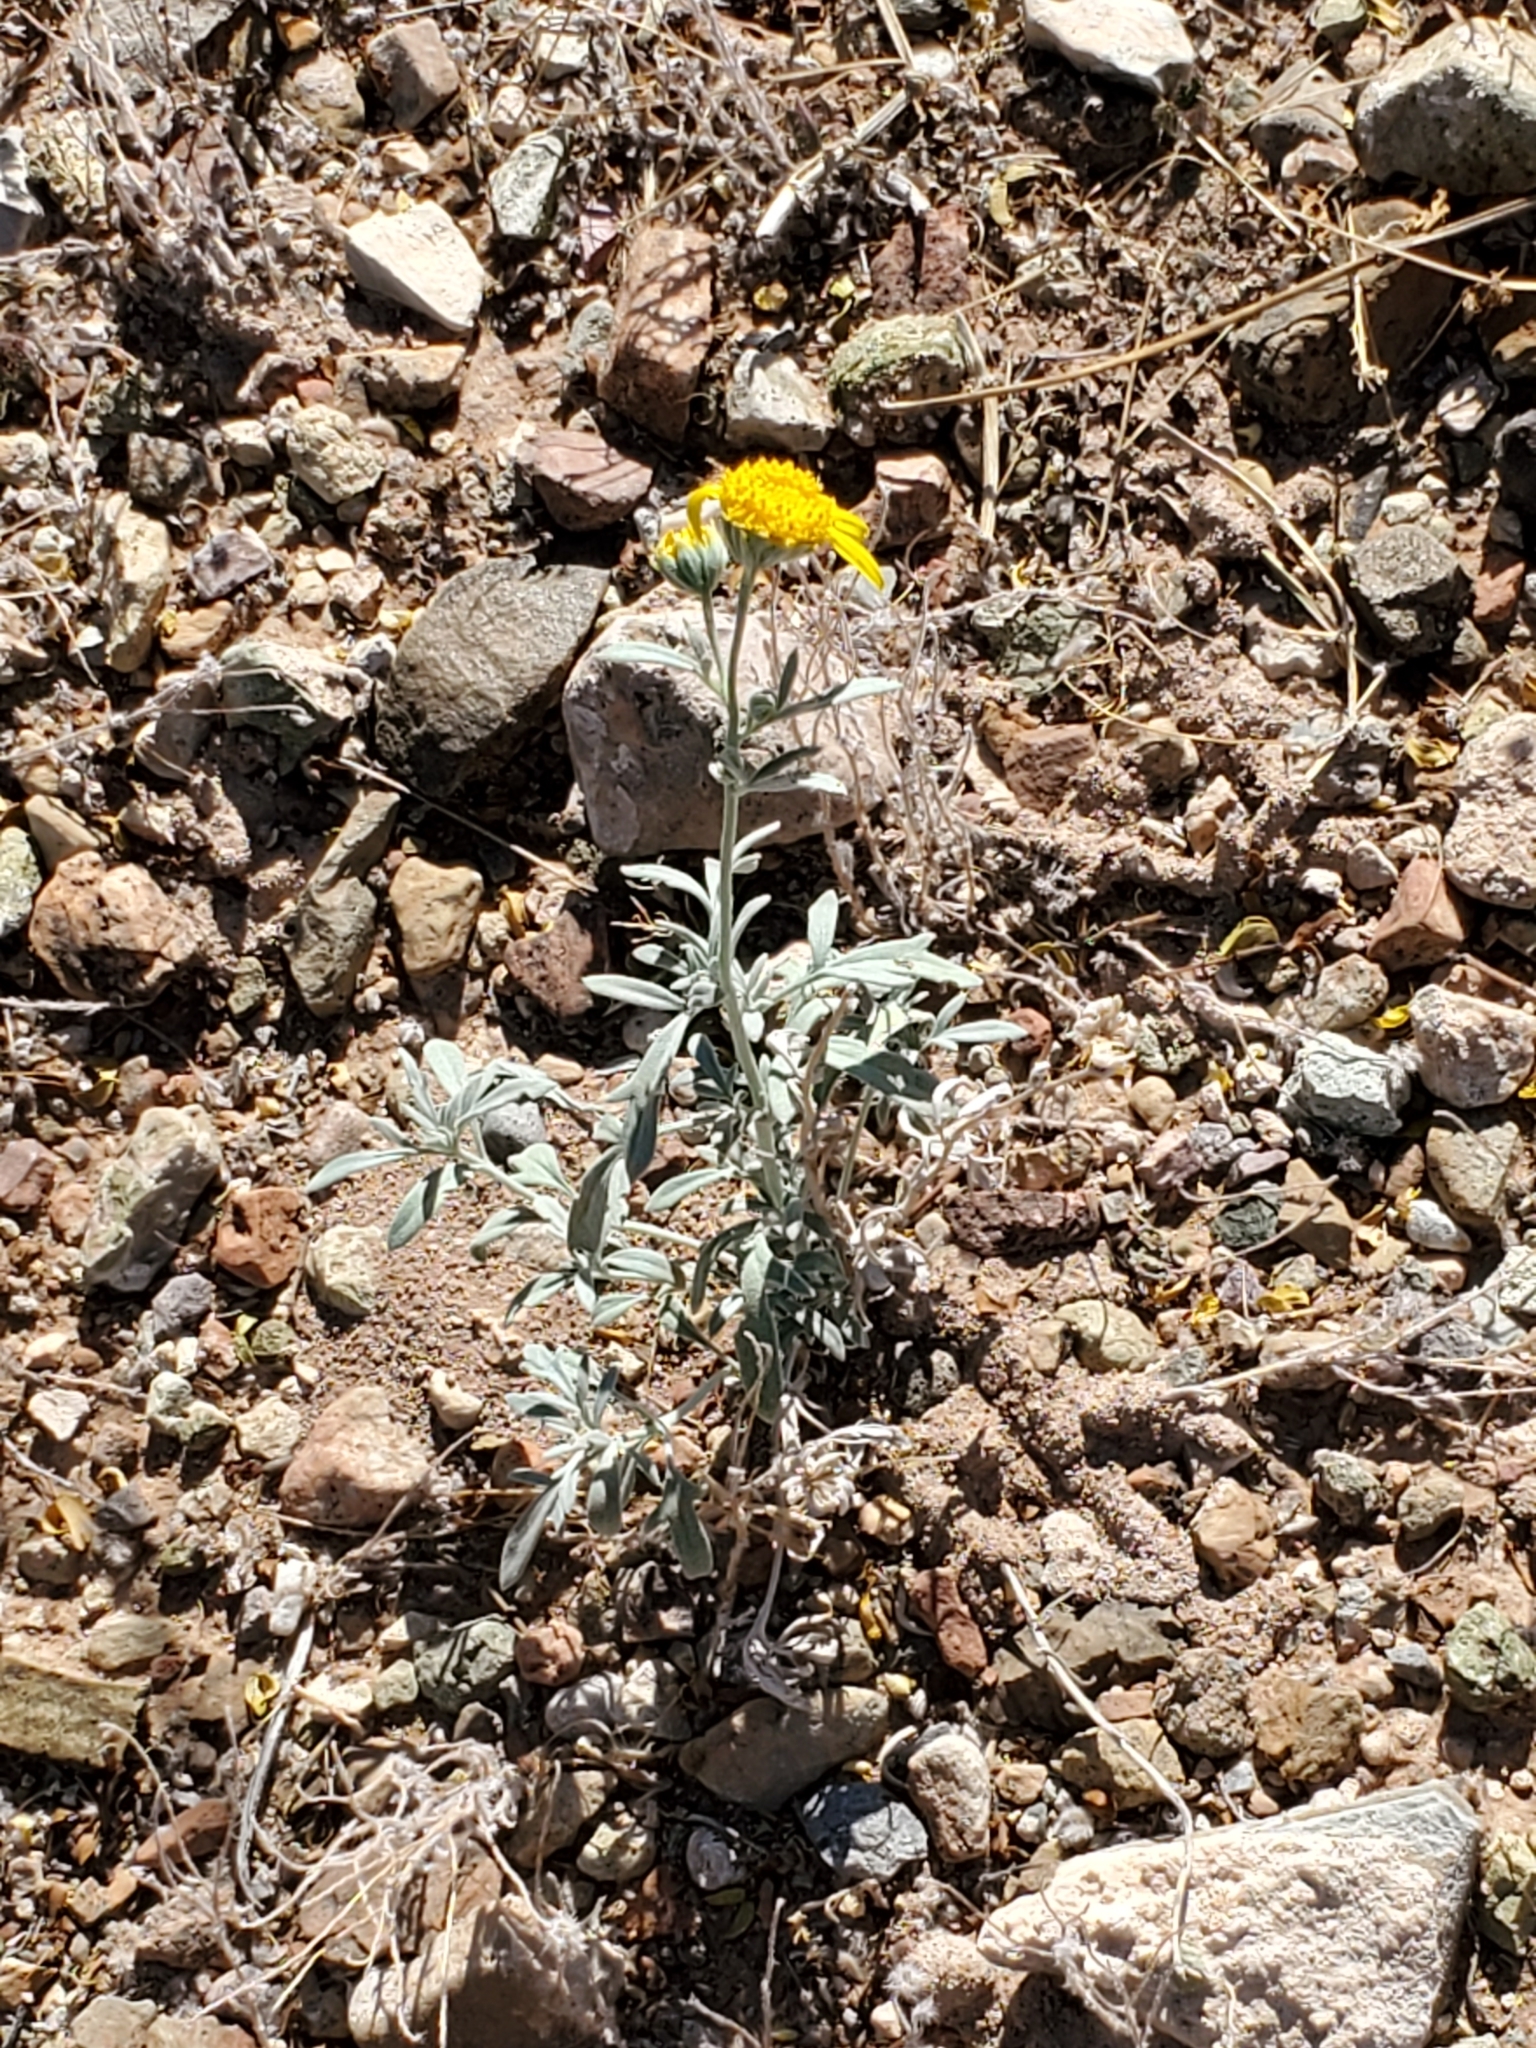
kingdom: Plantae
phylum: Tracheophyta
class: Magnoliopsida
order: Asterales
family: Asteraceae
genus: Picradeniopsis
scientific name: Picradeniopsis absinthifolia
